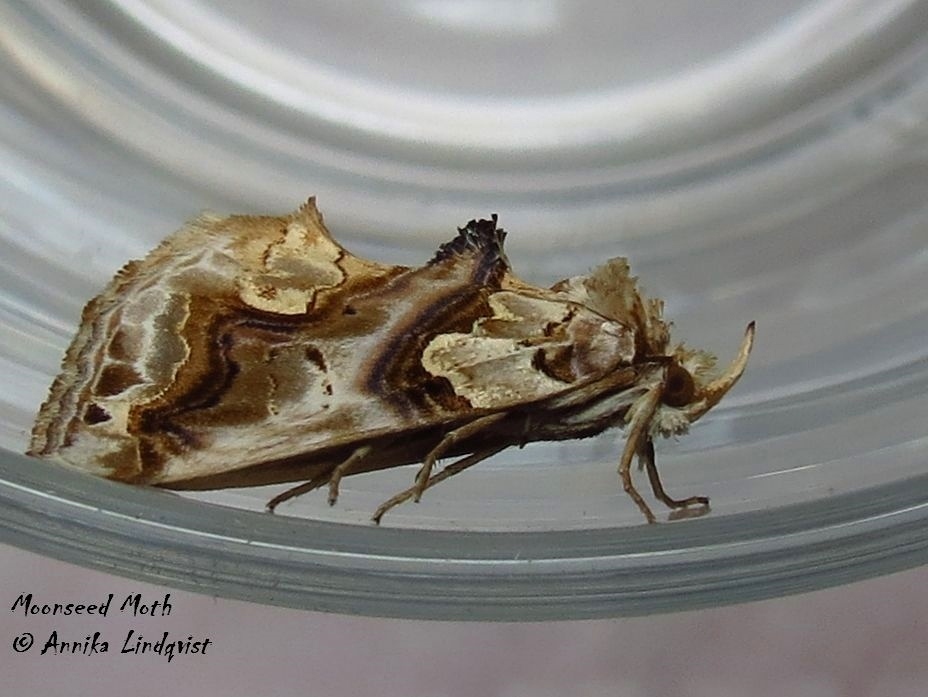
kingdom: Animalia
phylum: Arthropoda
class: Insecta
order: Lepidoptera
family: Erebidae
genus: Plusiodonta
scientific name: Plusiodonta compressipalpis
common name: Moonseed moth
